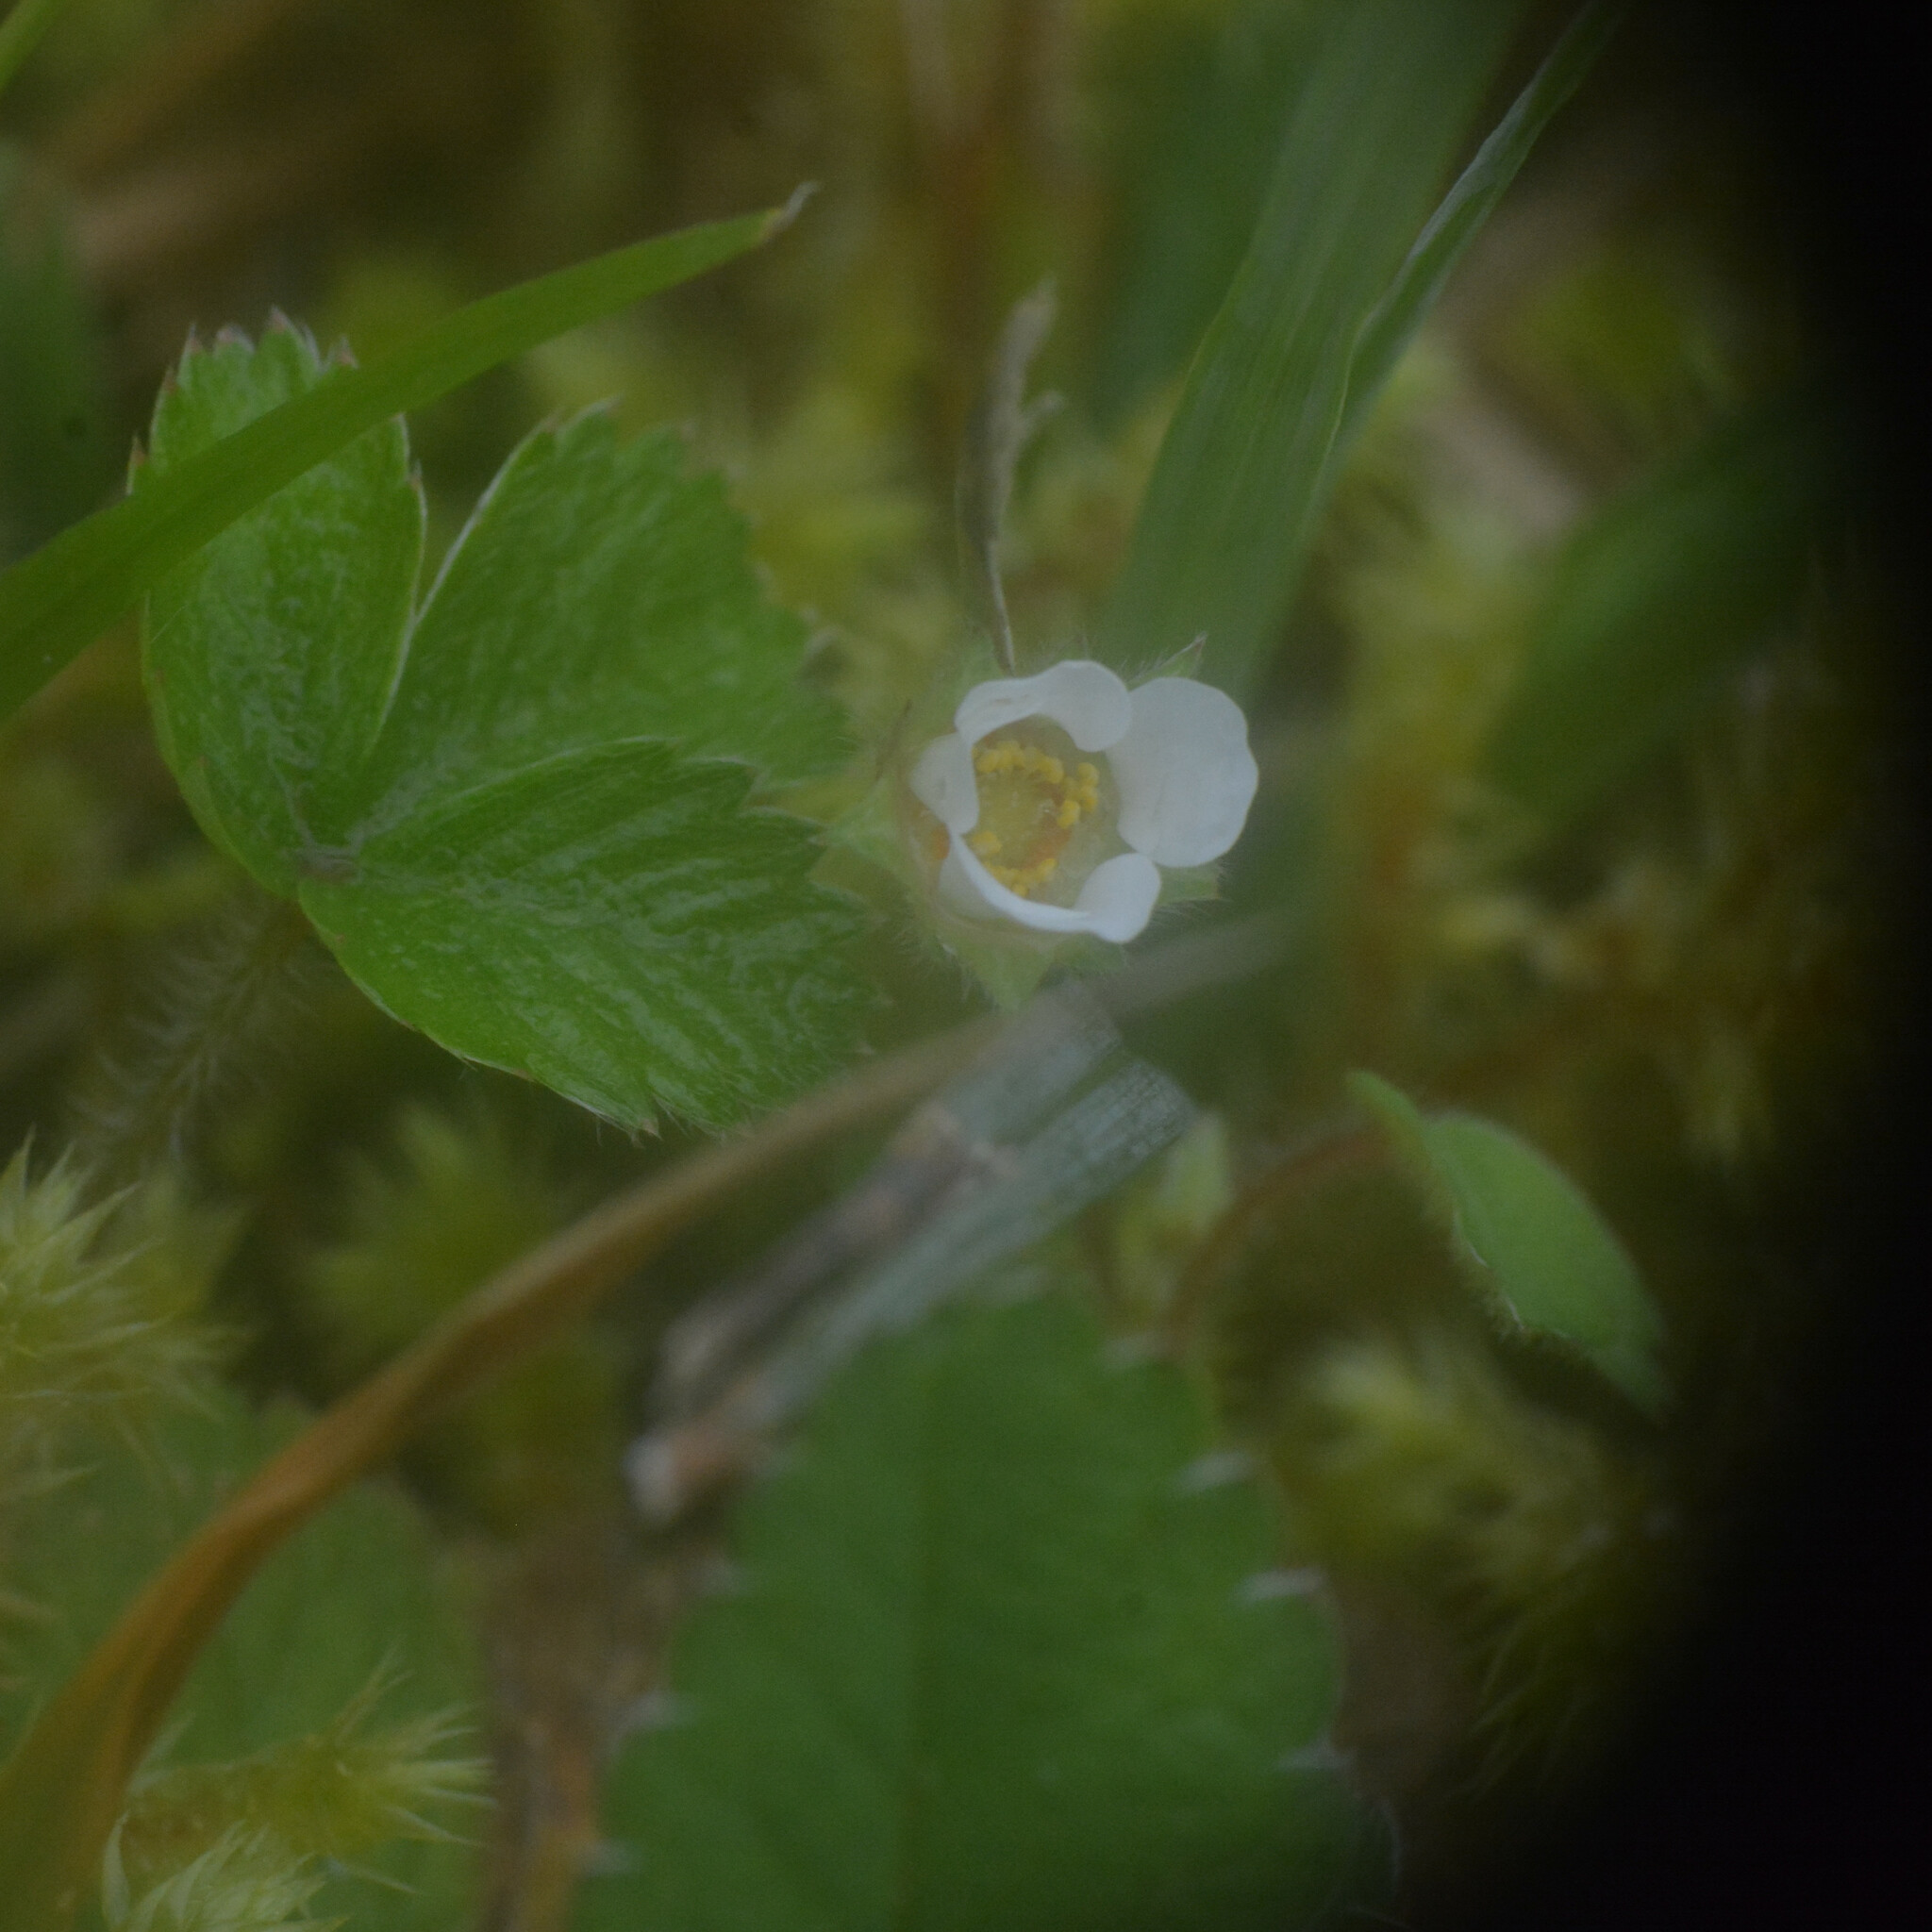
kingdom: Plantae
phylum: Tracheophyta
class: Magnoliopsida
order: Rosales
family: Rosaceae
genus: Potentilla
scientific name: Potentilla sterilis
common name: Barren strawberry
